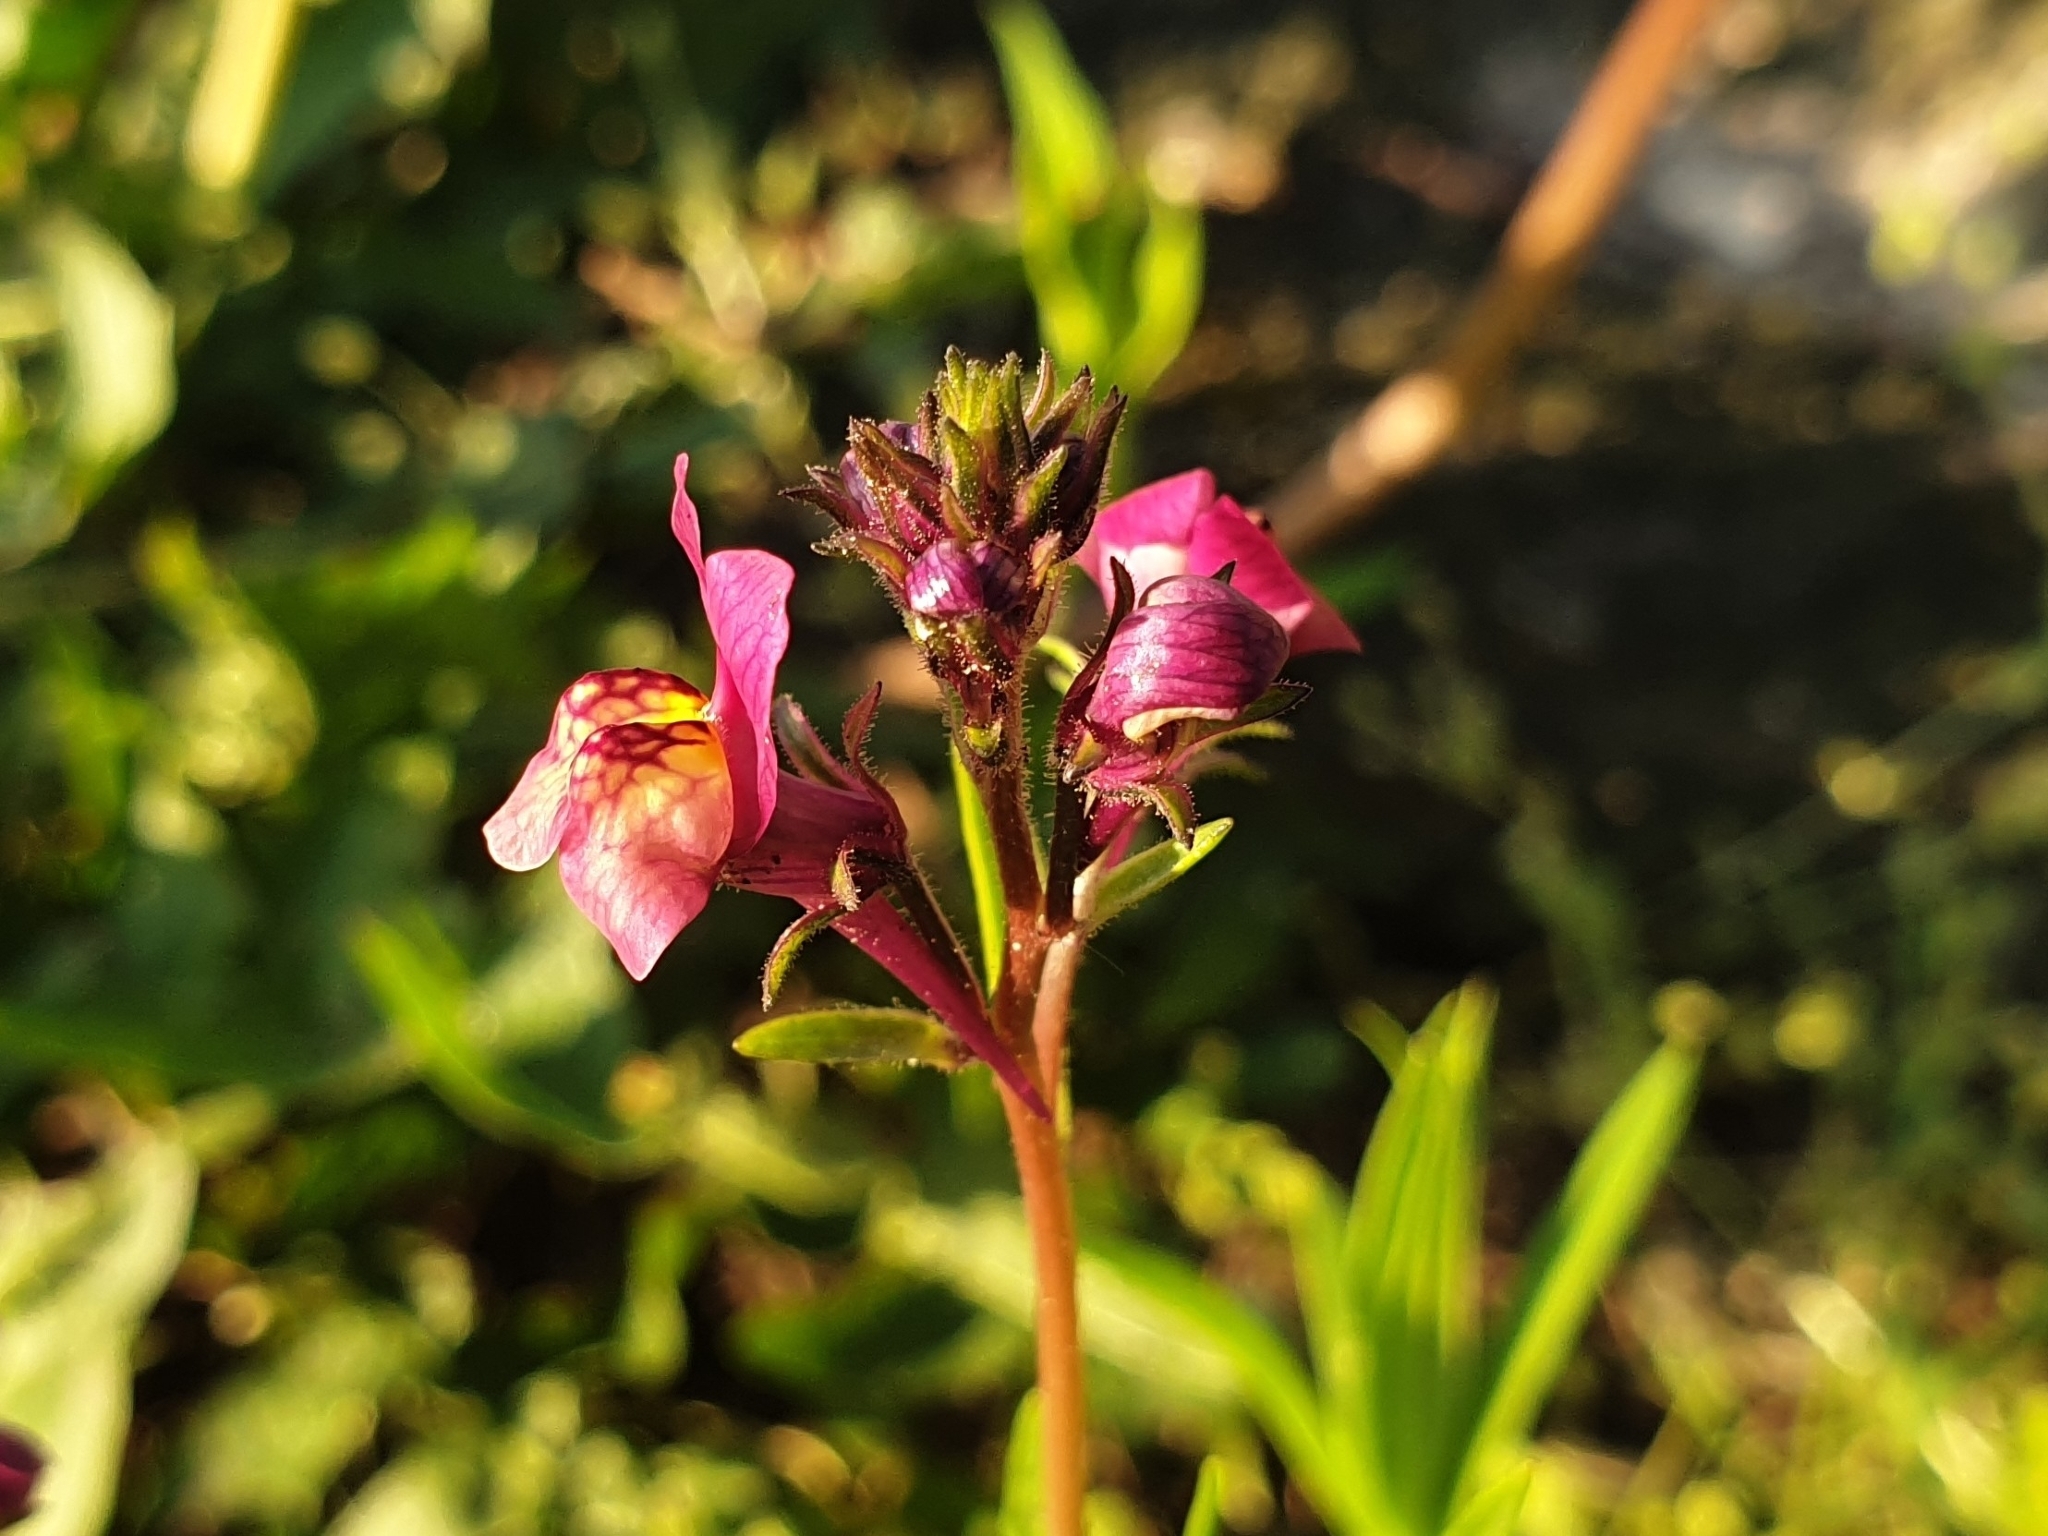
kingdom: Plantae
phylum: Tracheophyta
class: Magnoliopsida
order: Lamiales
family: Plantaginaceae
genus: Linaria
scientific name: Linaria maroccana
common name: Moroccan toadflax
